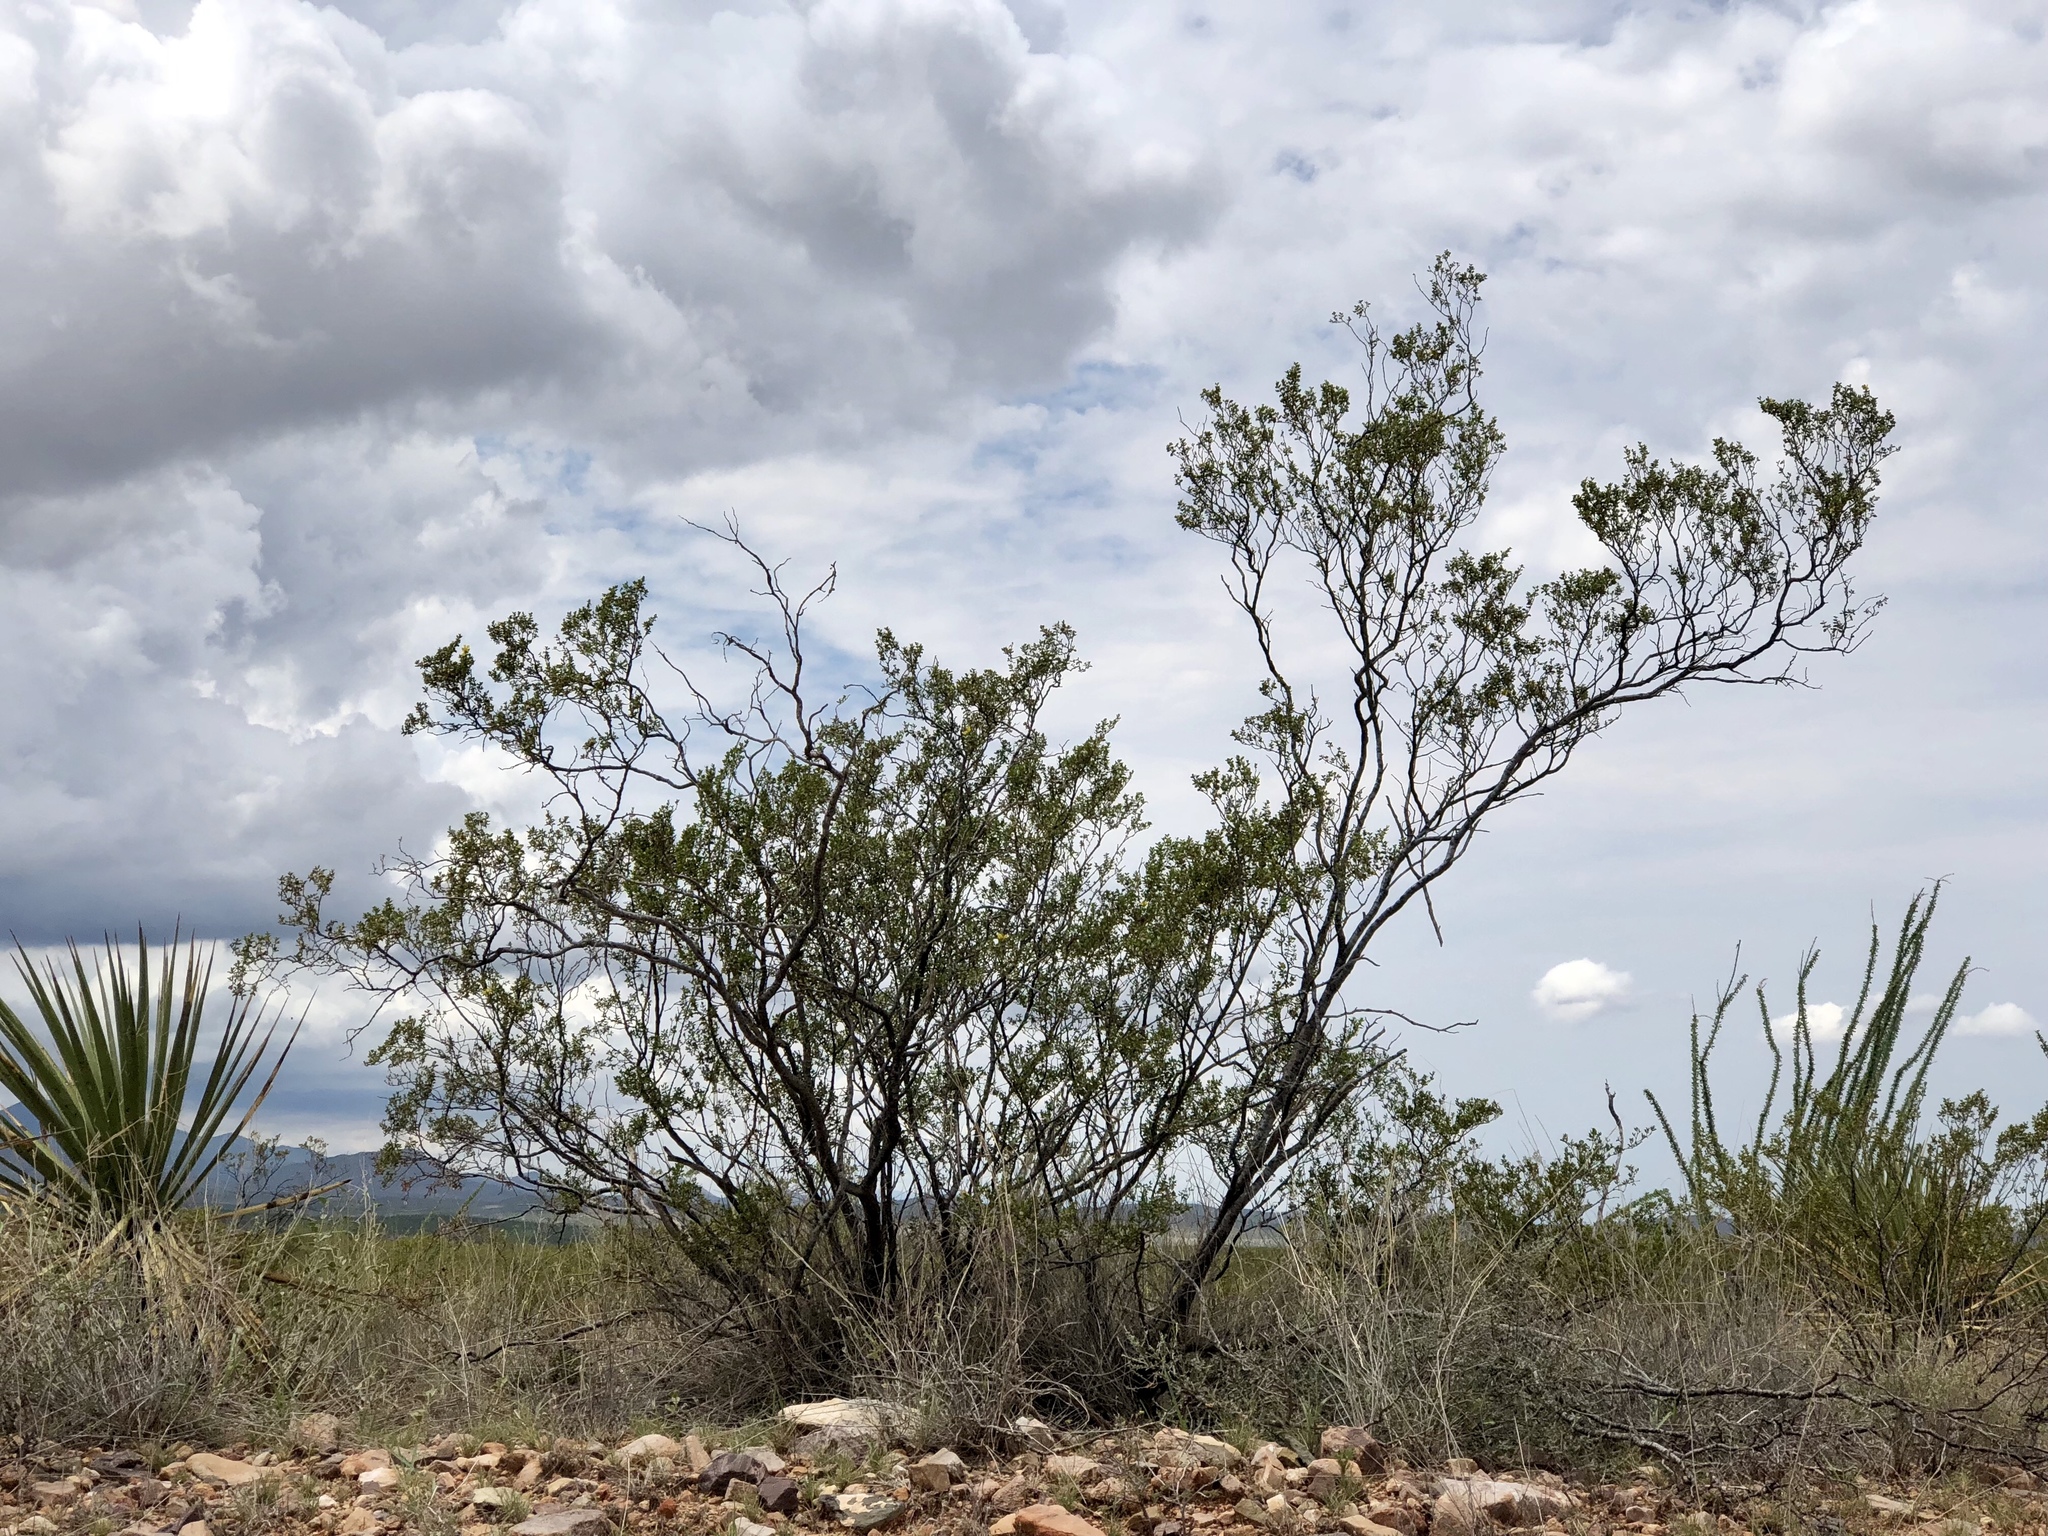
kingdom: Plantae
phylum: Tracheophyta
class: Magnoliopsida
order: Zygophyllales
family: Zygophyllaceae
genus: Larrea
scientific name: Larrea tridentata
